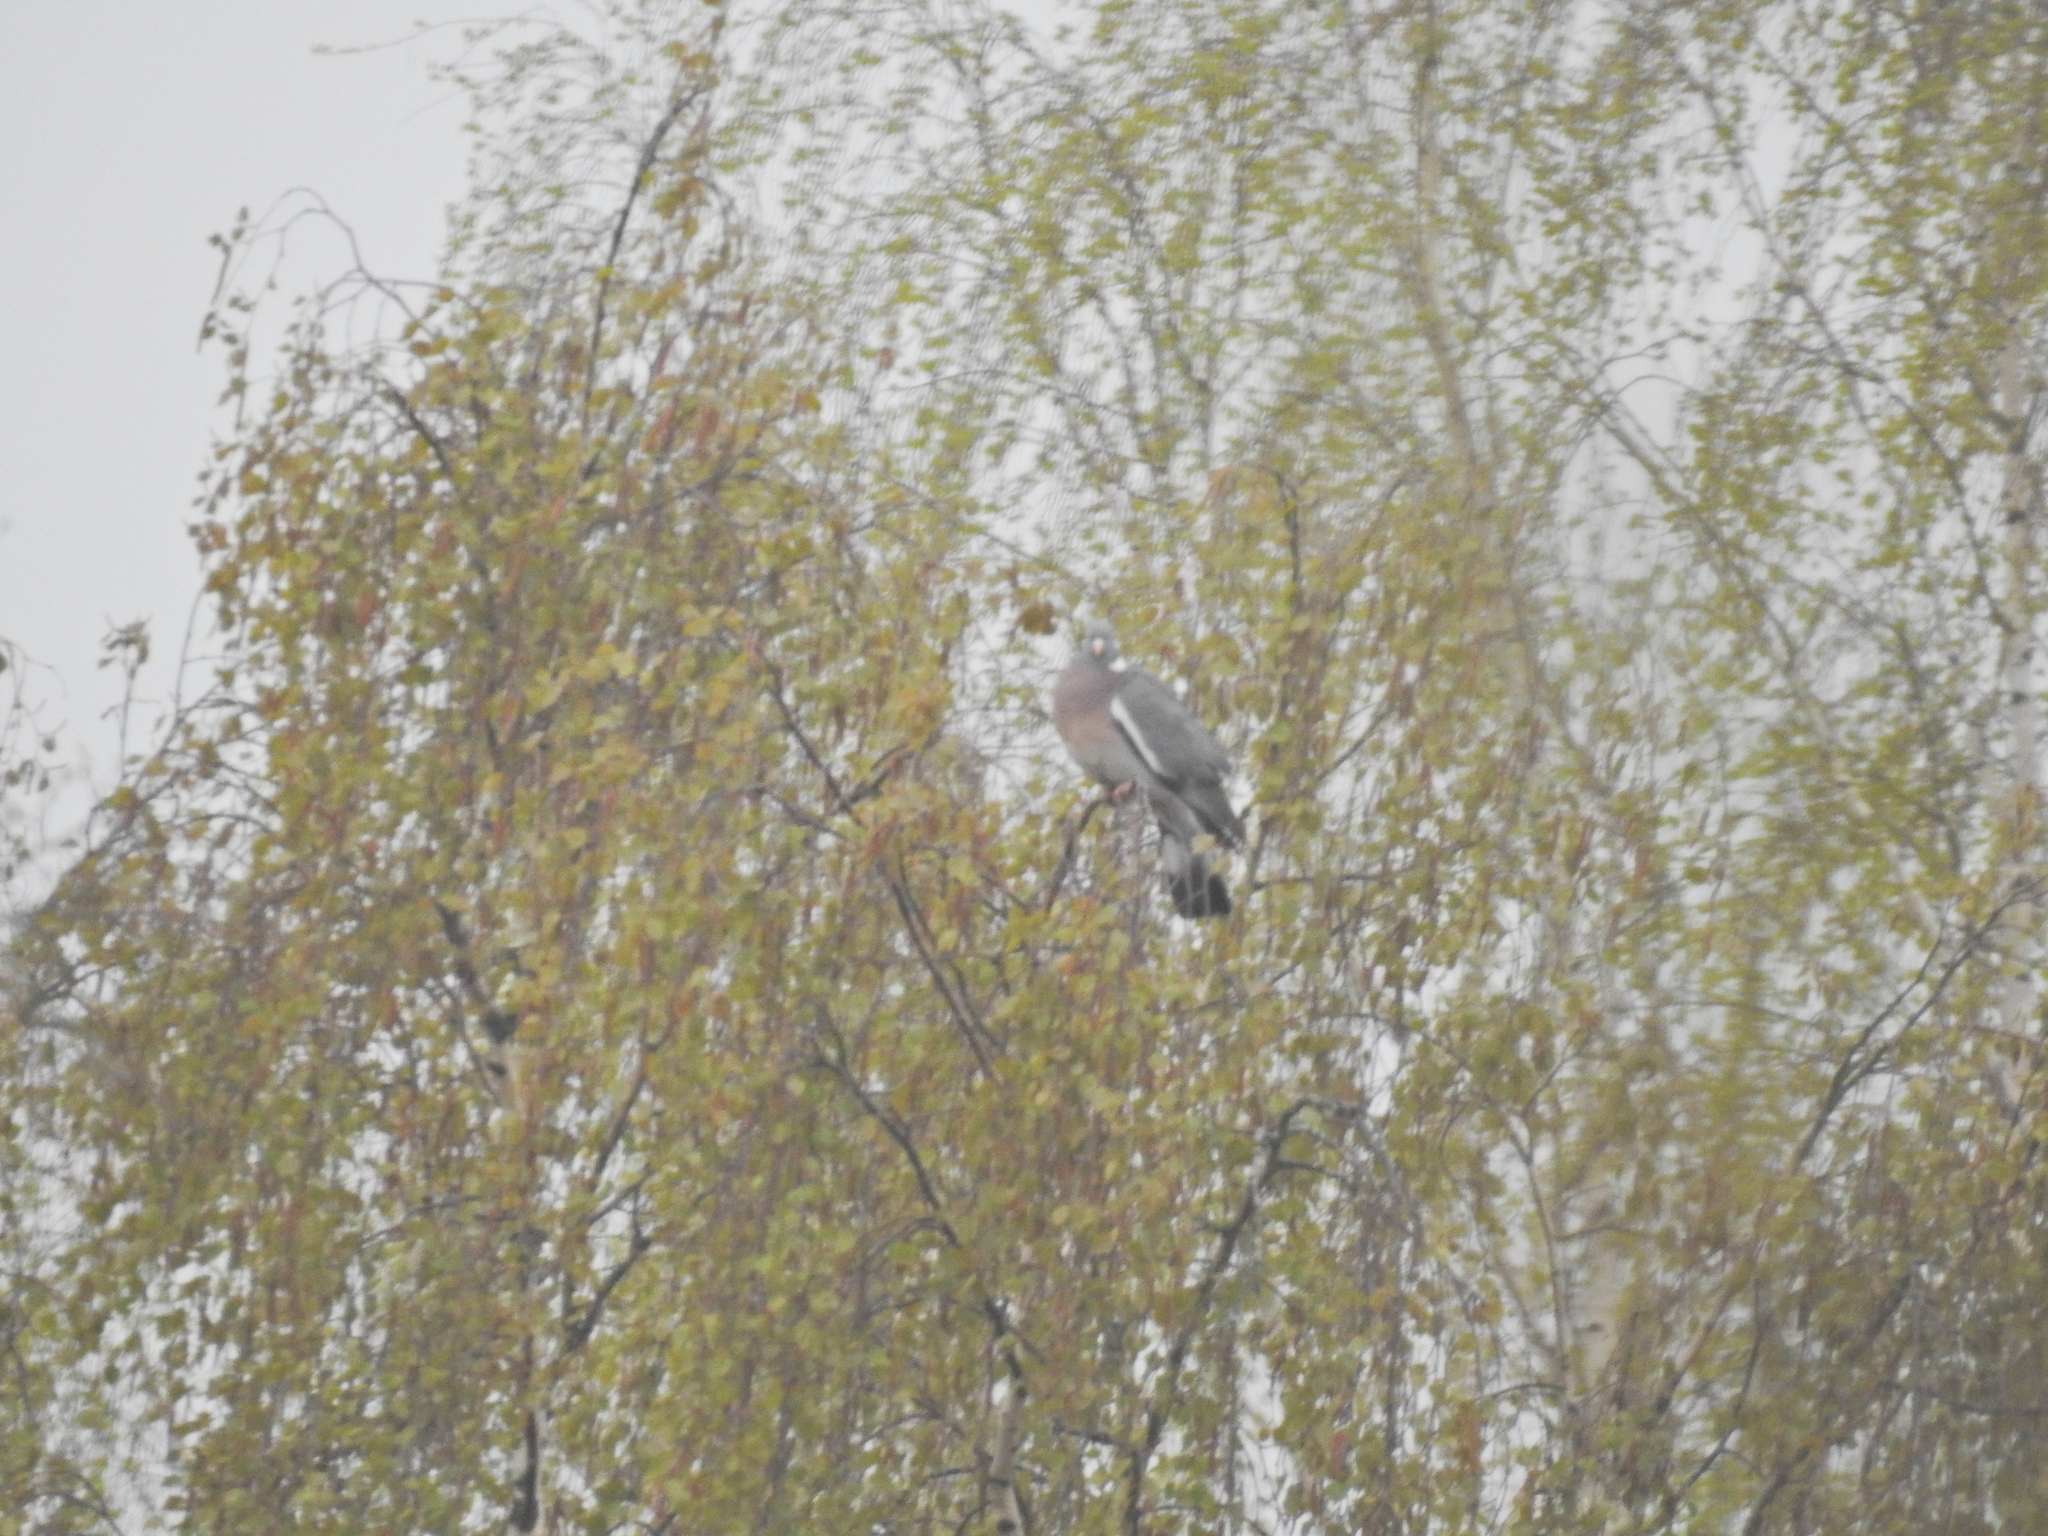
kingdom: Animalia
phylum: Chordata
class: Aves
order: Columbiformes
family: Columbidae
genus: Columba
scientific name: Columba palumbus
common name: Common wood pigeon
